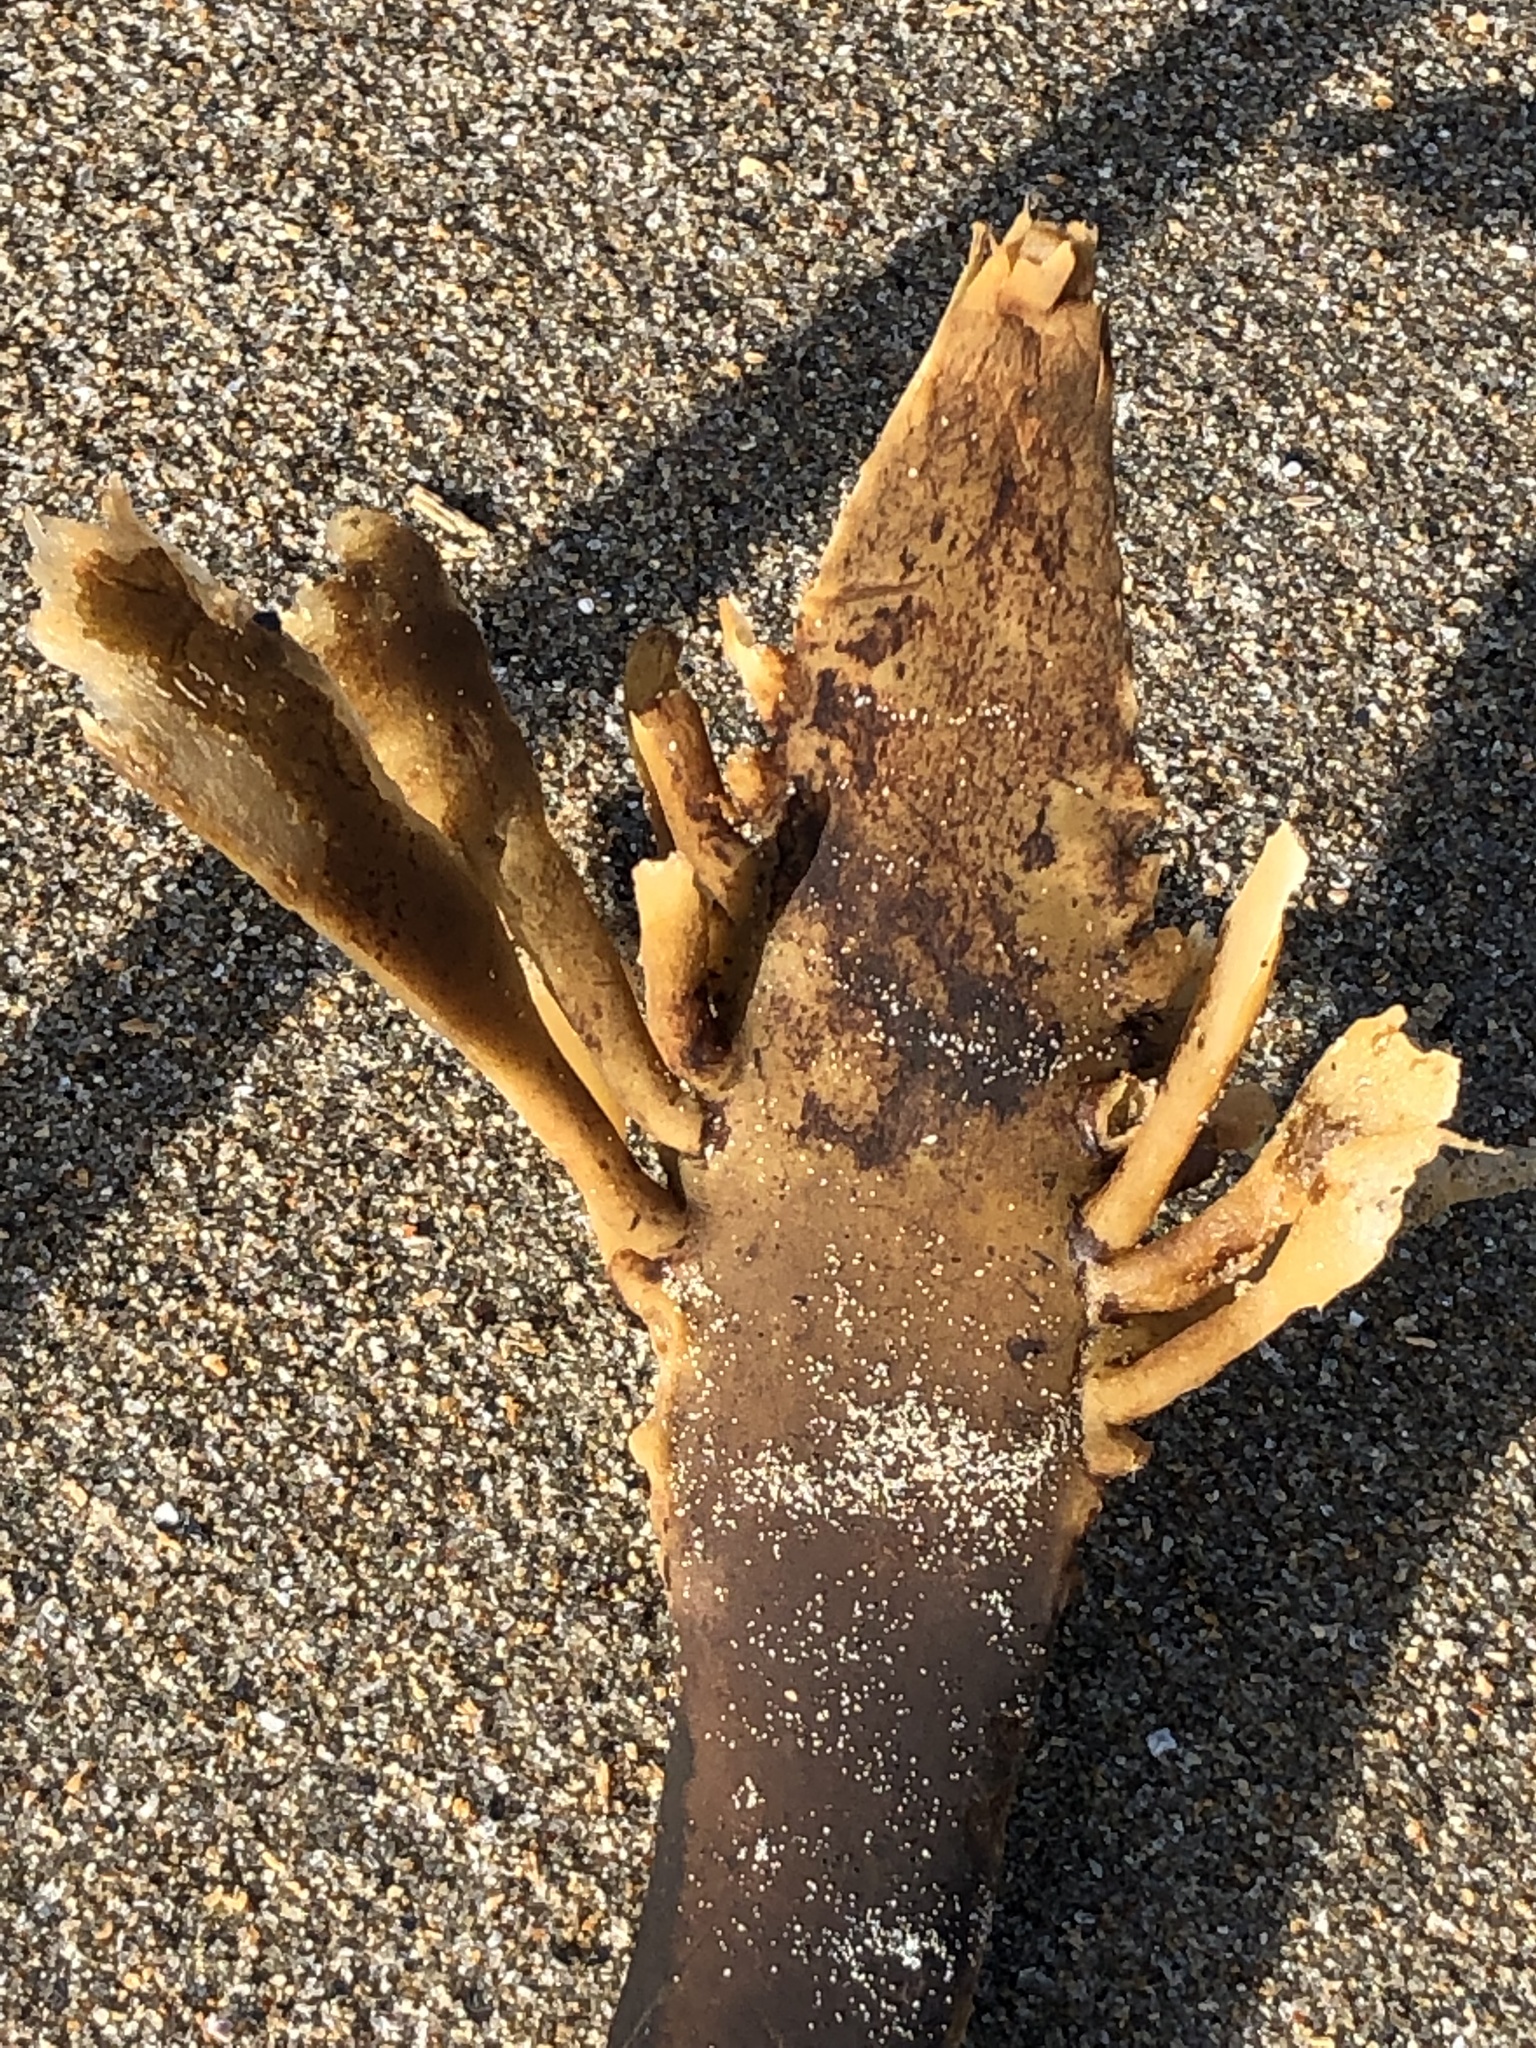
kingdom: Chromista
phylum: Ochrophyta
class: Phaeophyceae
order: Laminariales
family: Alariaceae
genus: Pterygophora
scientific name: Pterygophora californica
